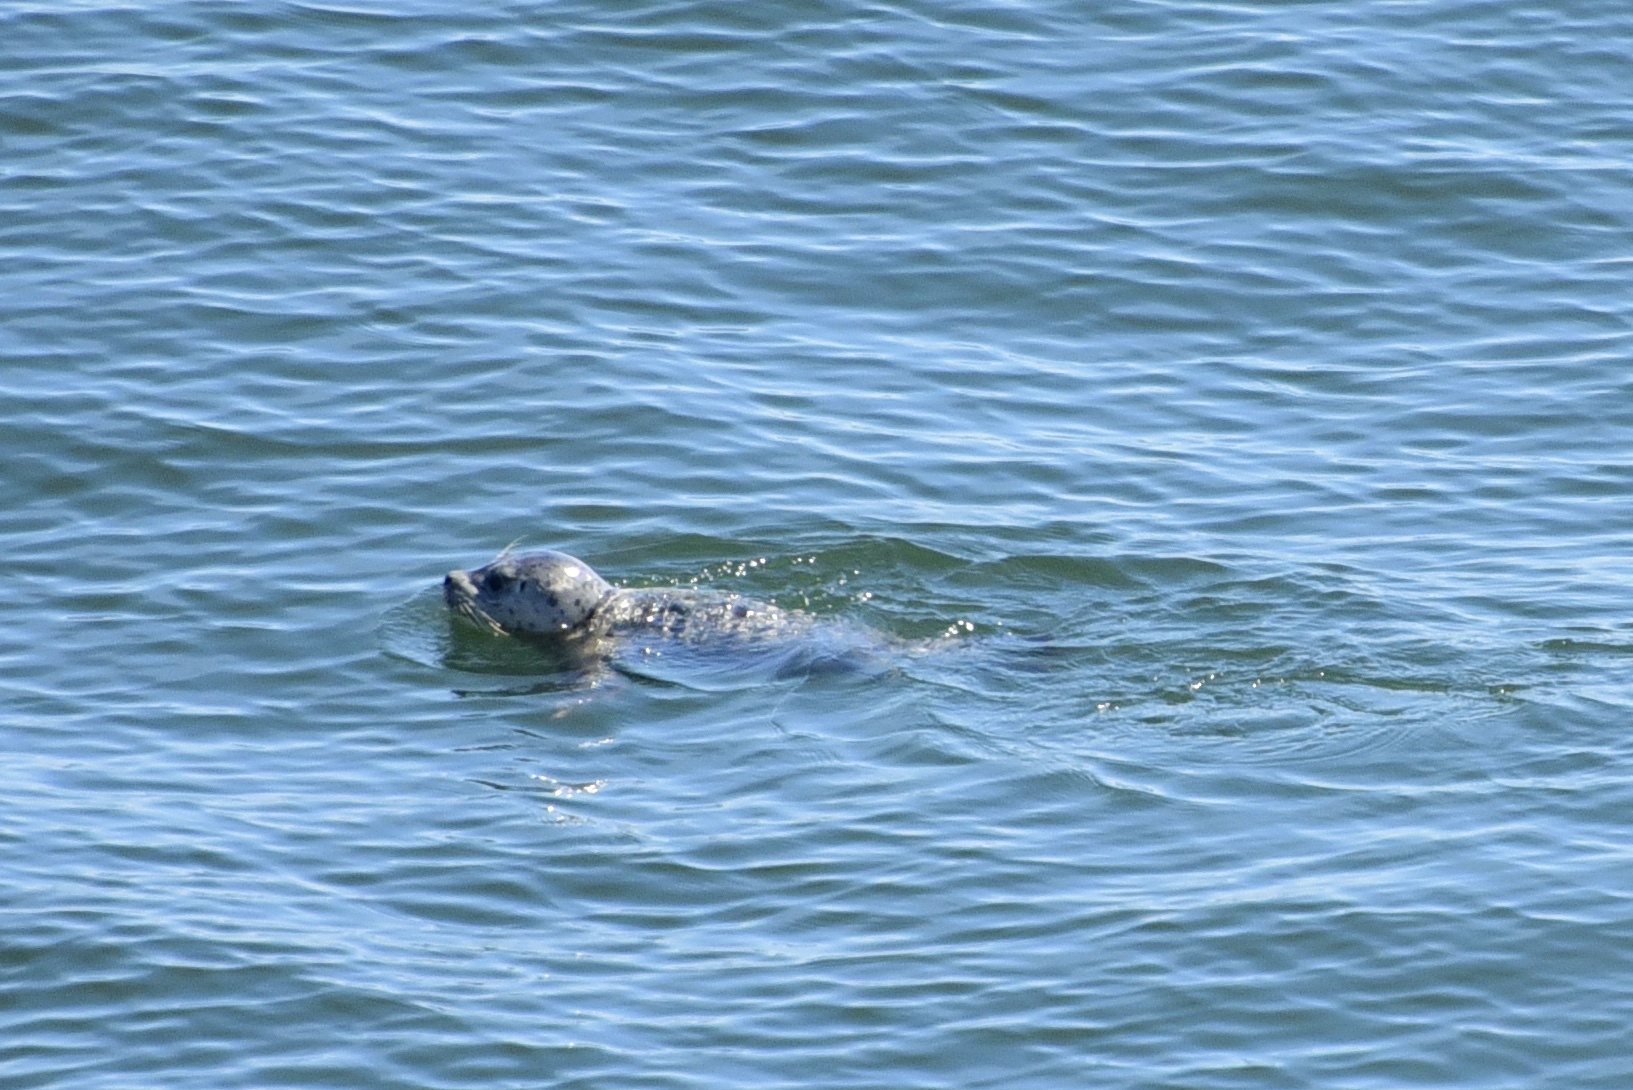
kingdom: Animalia
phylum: Chordata
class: Mammalia
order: Carnivora
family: Phocidae
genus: Phoca
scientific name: Phoca vitulina
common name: Harbor seal
